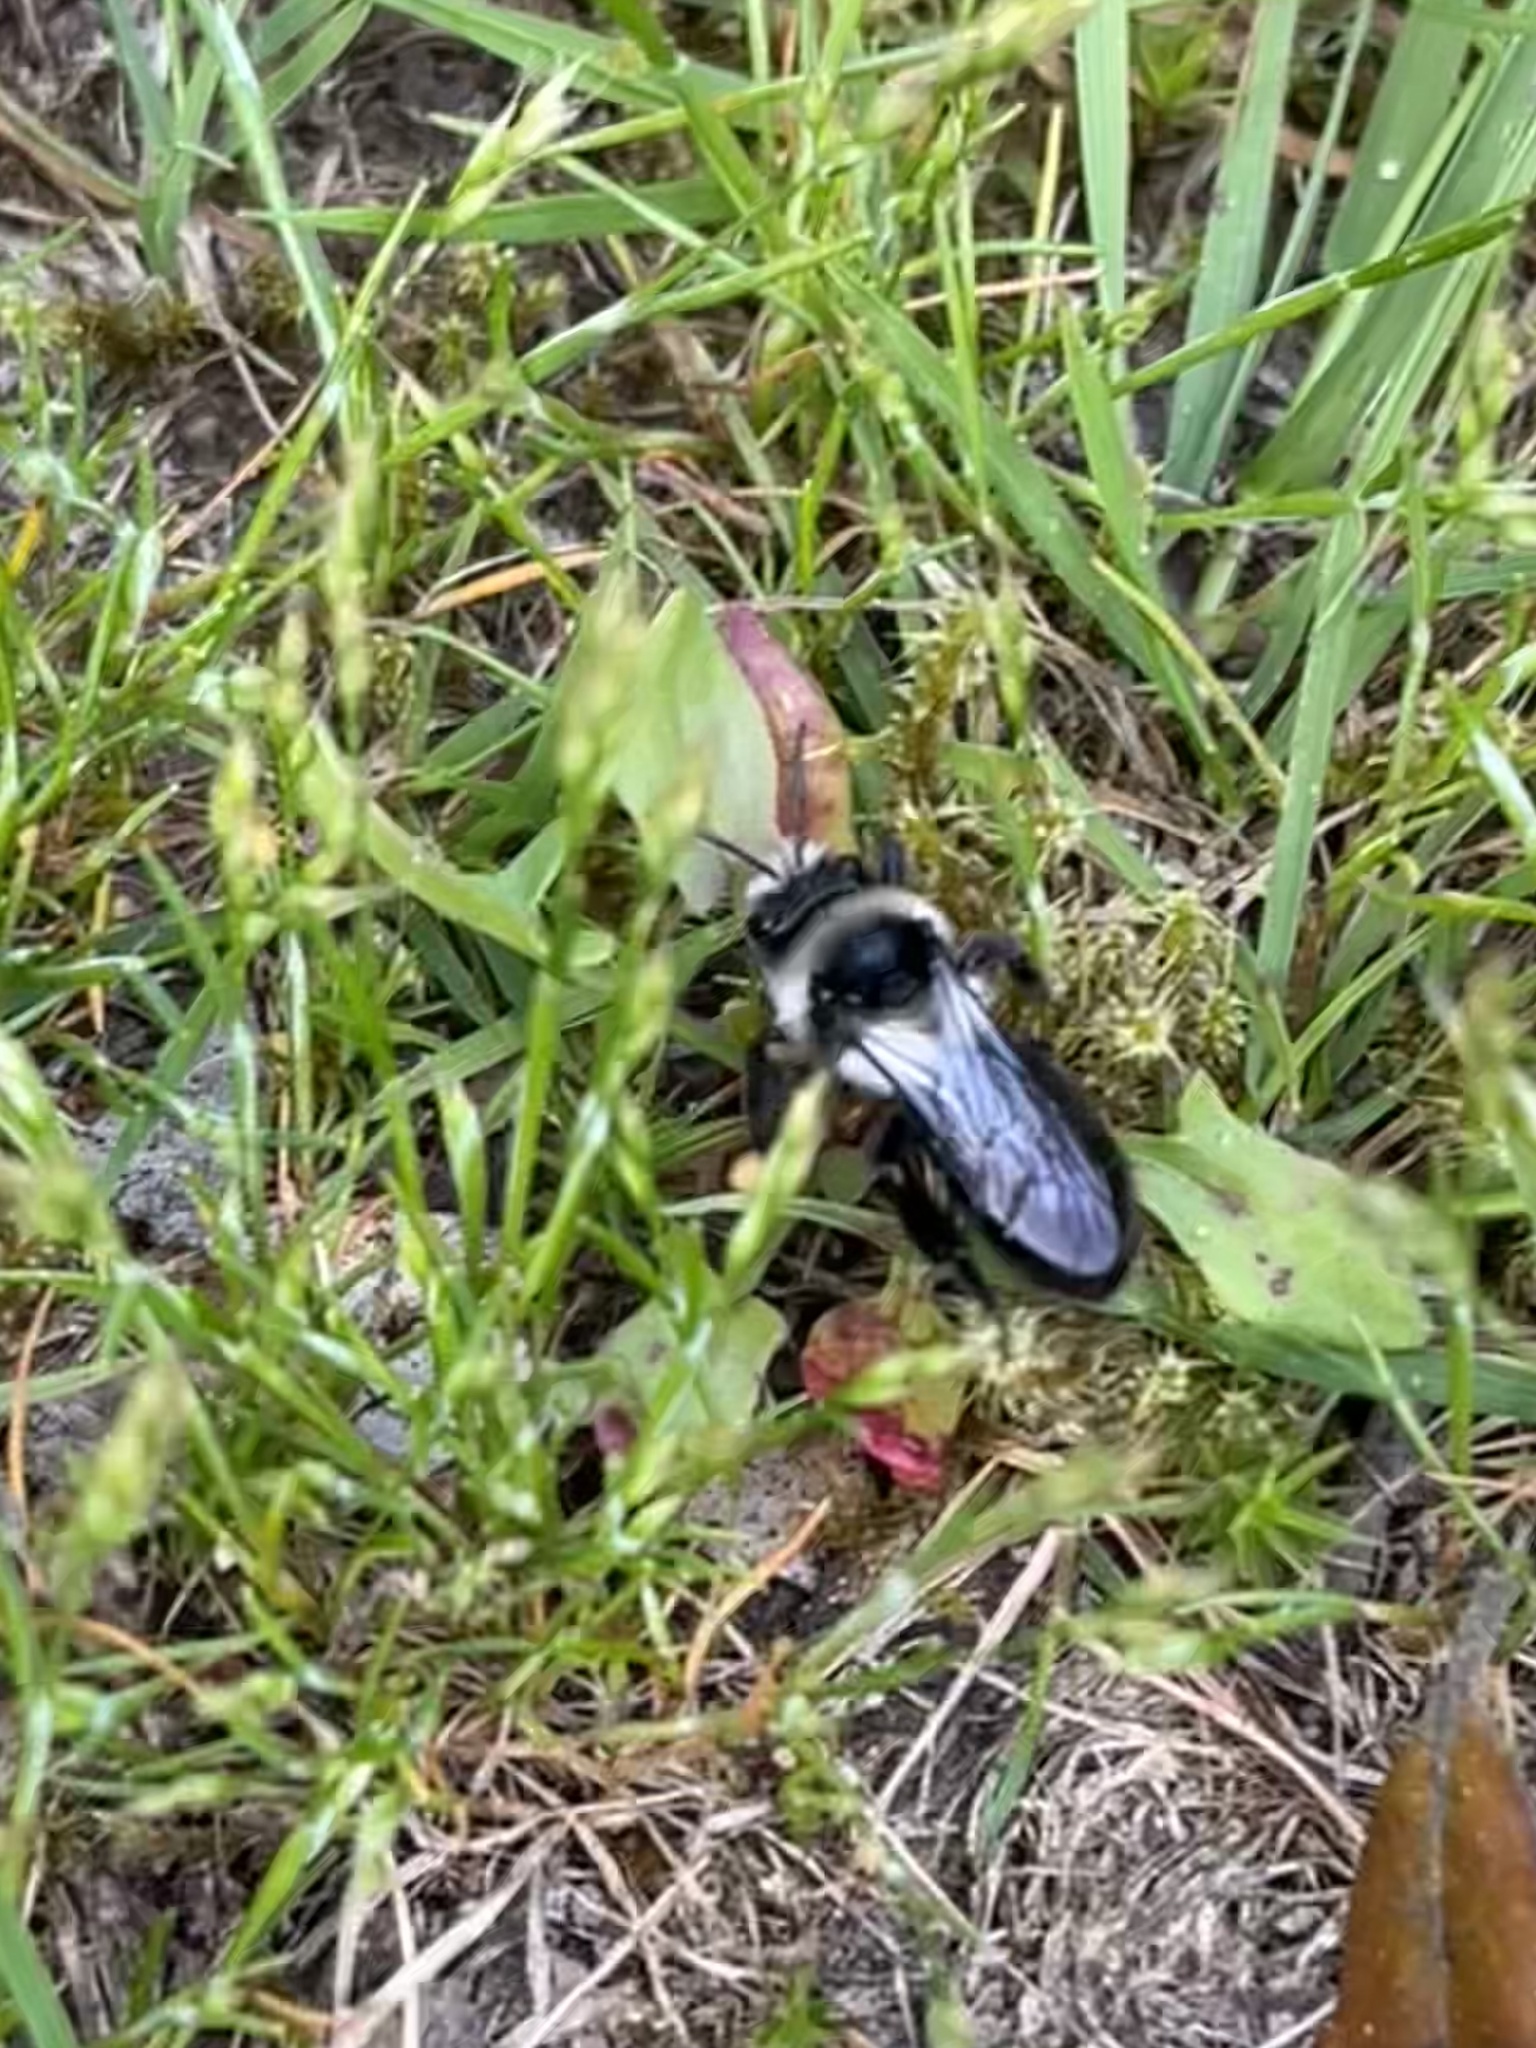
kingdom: Animalia
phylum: Arthropoda
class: Insecta
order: Hymenoptera
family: Andrenidae
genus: Andrena
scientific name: Andrena cineraria
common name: Ashy mining bee
